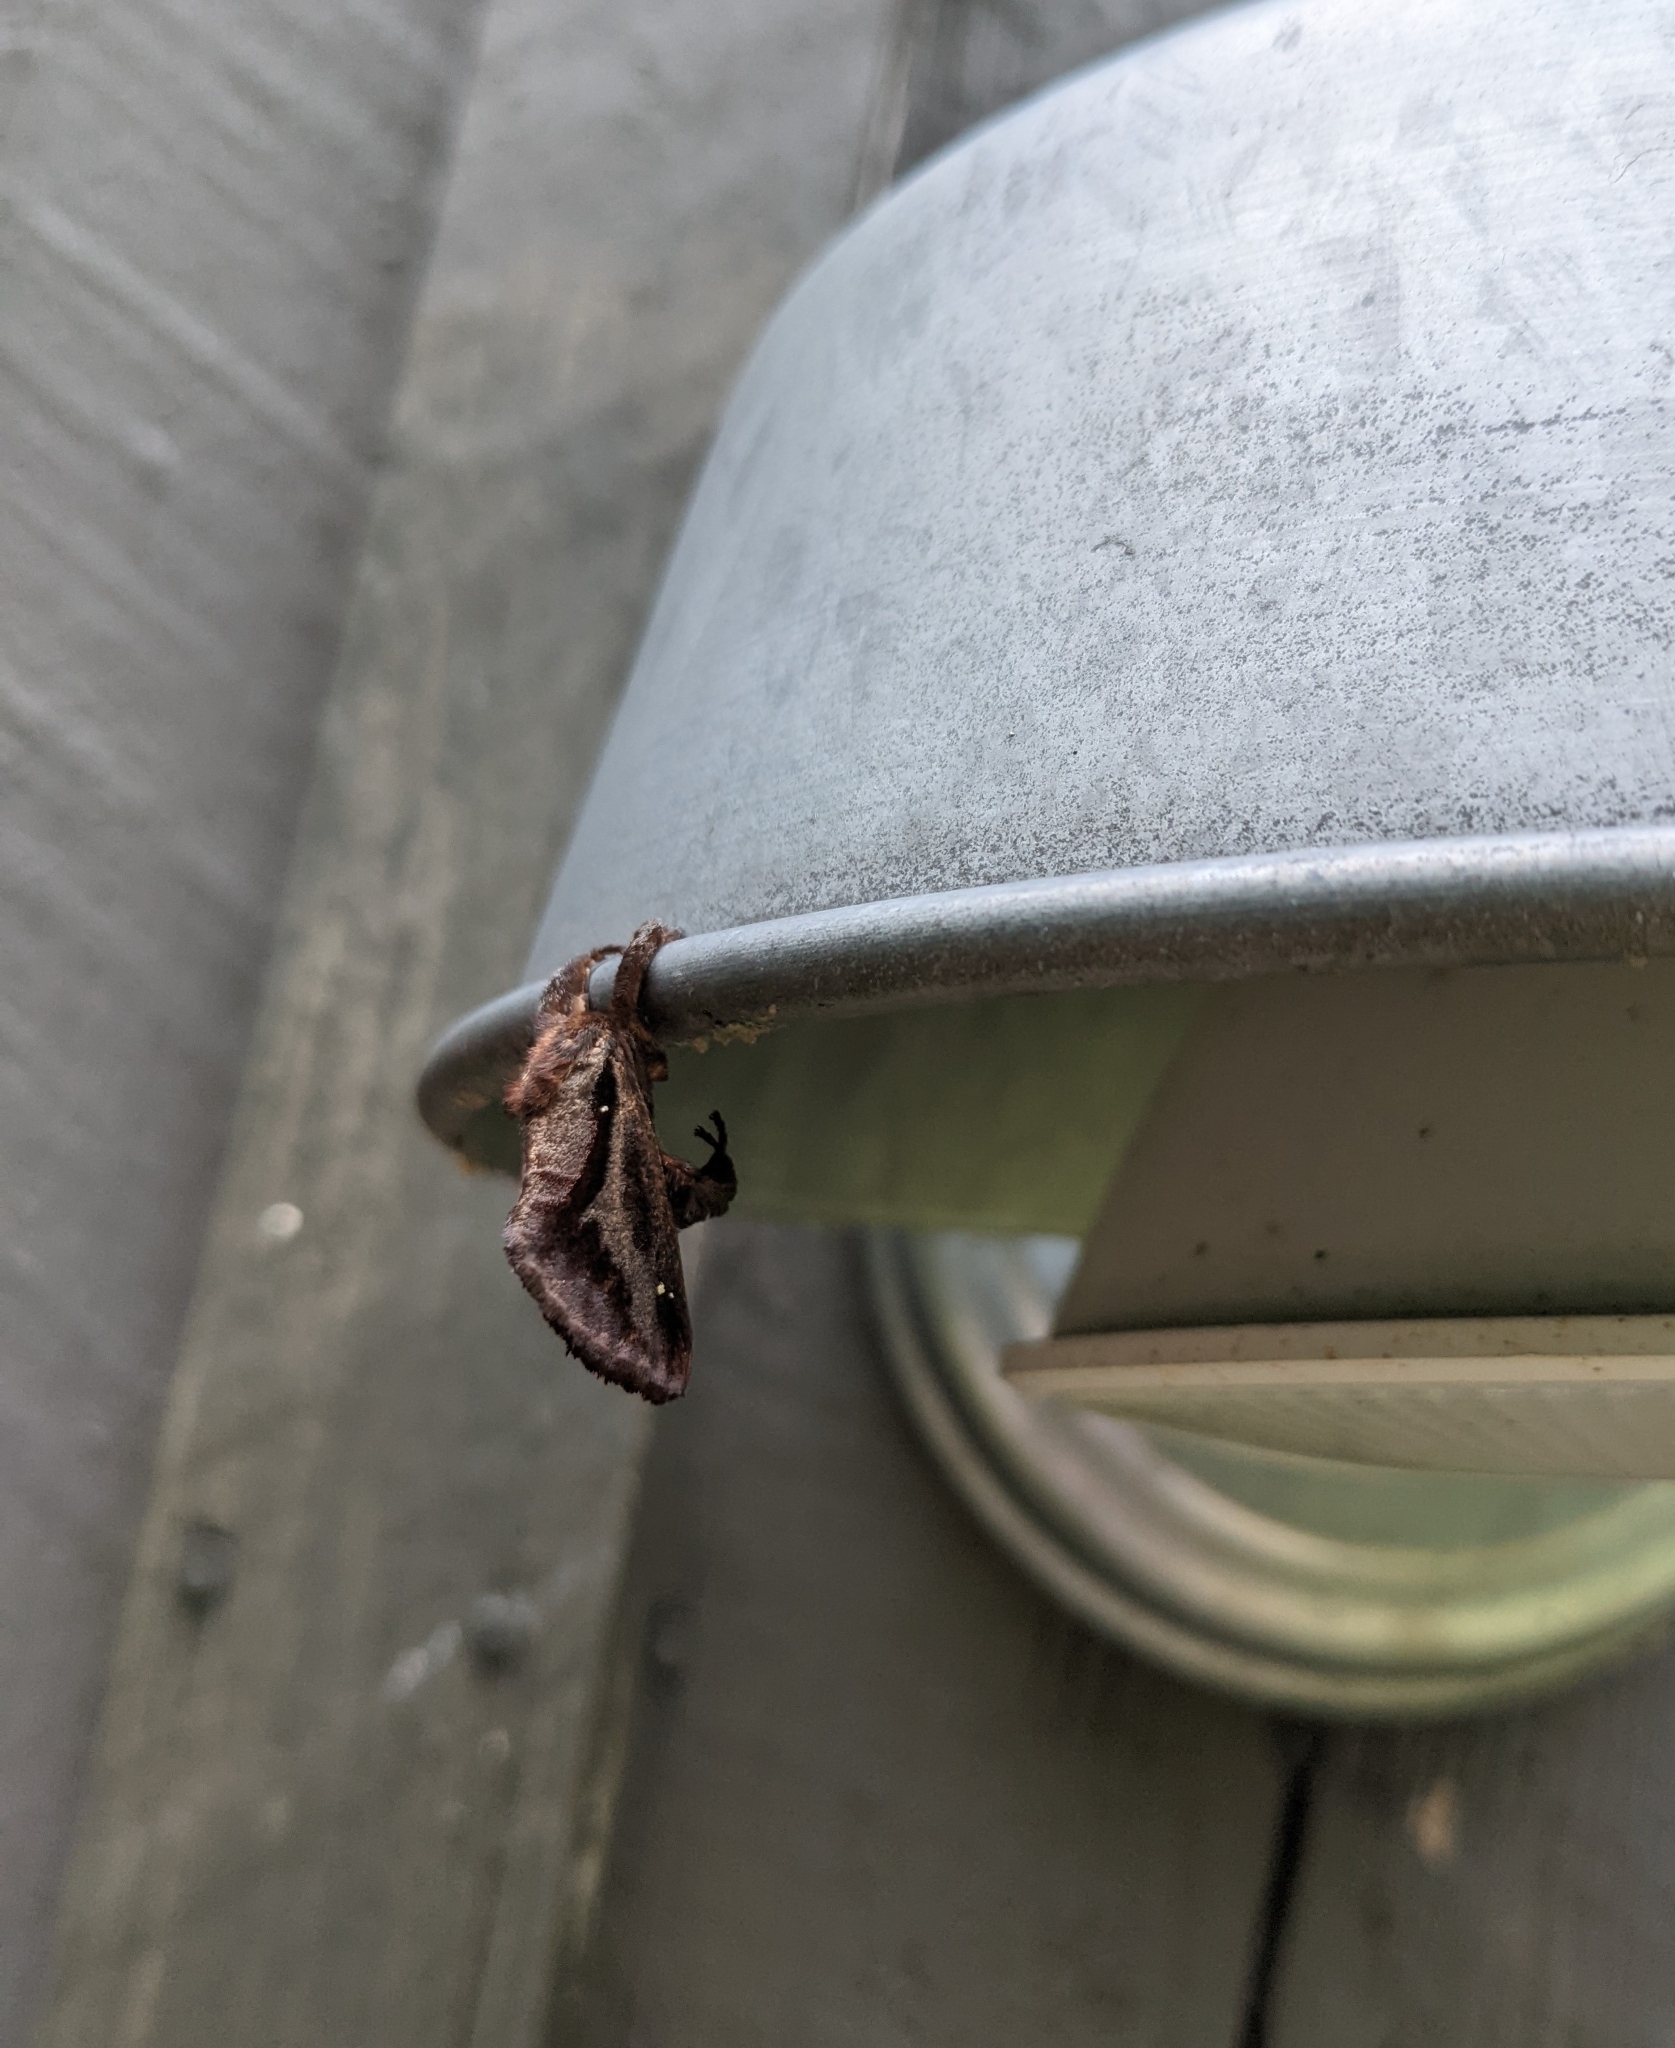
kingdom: Animalia
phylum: Arthropoda
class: Insecta
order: Lepidoptera
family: Limacodidae
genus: Acharia
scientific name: Acharia stimulea
